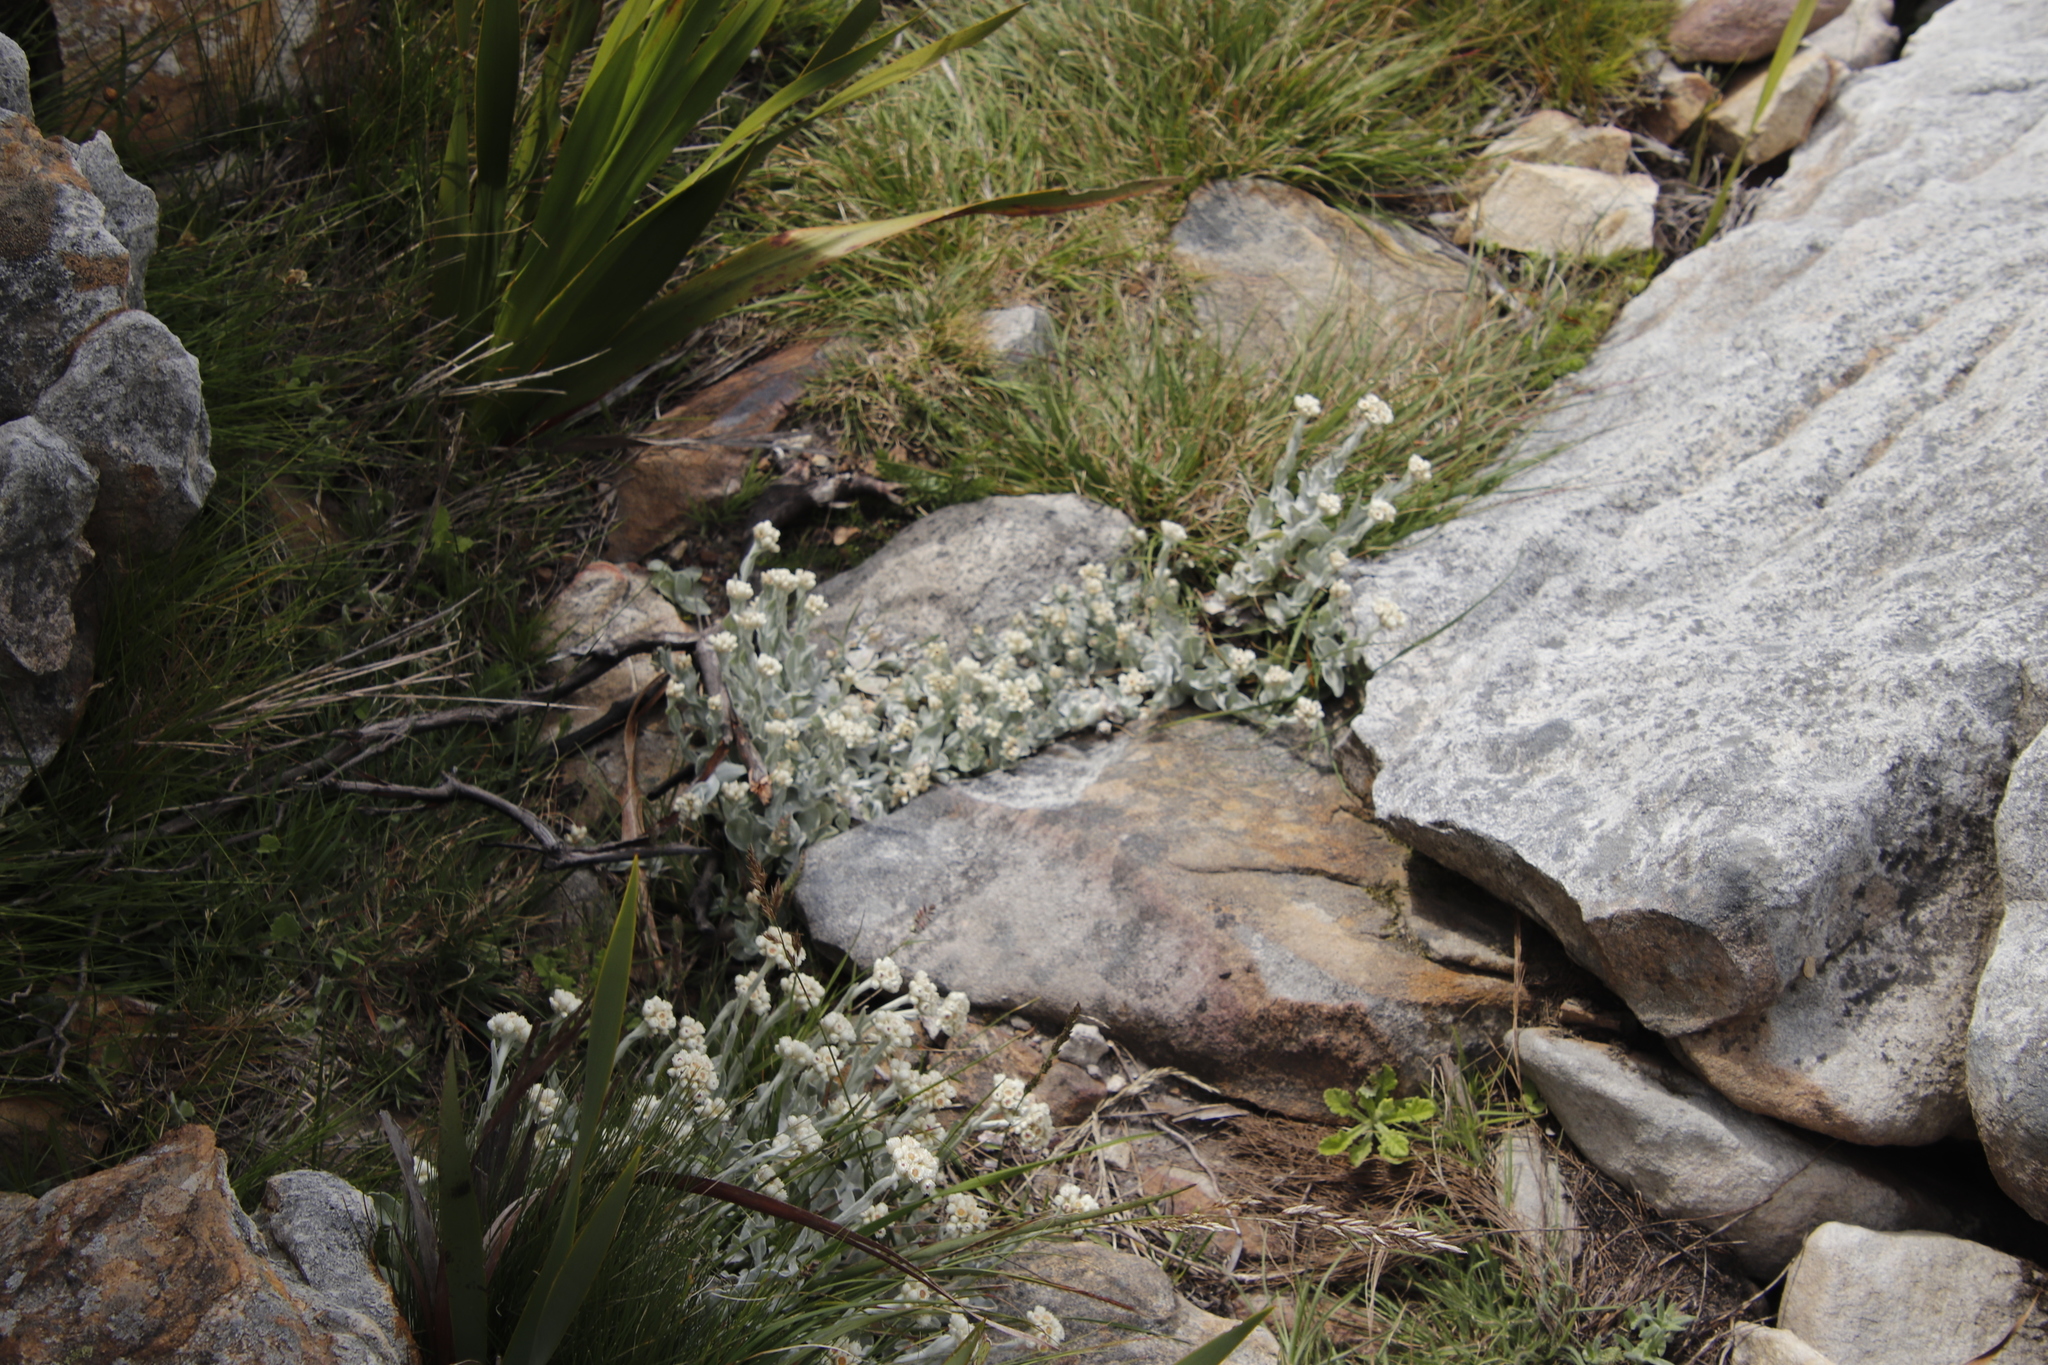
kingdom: Plantae
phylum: Tracheophyta
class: Magnoliopsida
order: Asterales
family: Asteraceae
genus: Helichrysum
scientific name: Helichrysum diffusum
